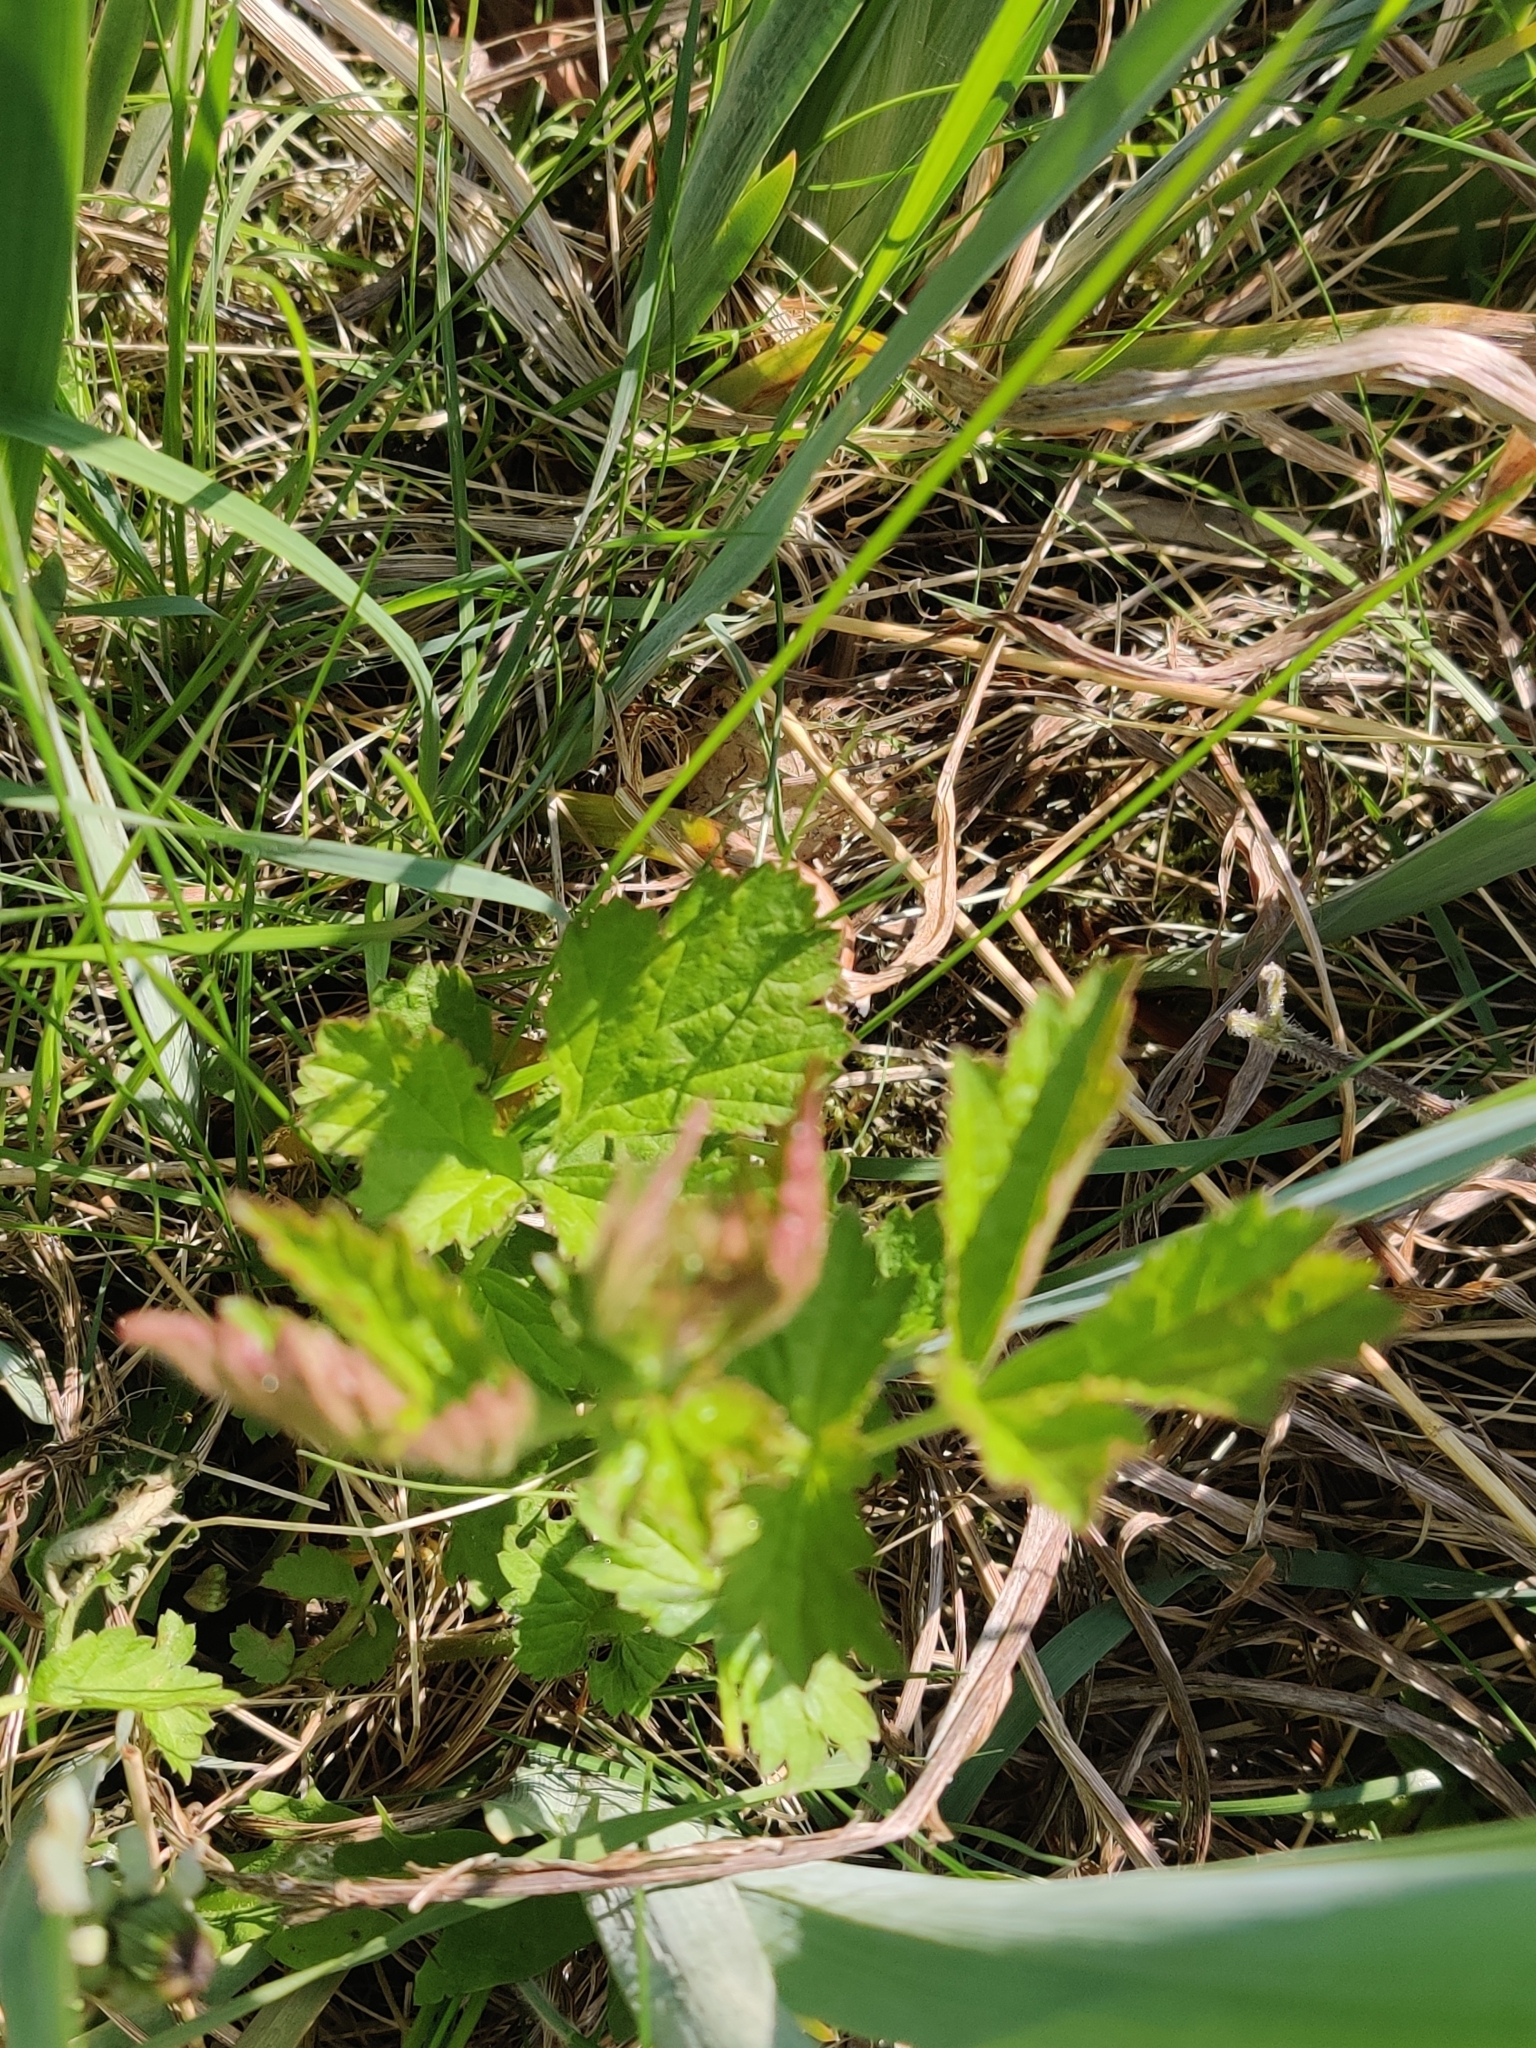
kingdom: Plantae
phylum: Tracheophyta
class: Magnoliopsida
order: Rosales
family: Rosaceae
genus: Geum
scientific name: Geum urbanum
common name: Wood avens
